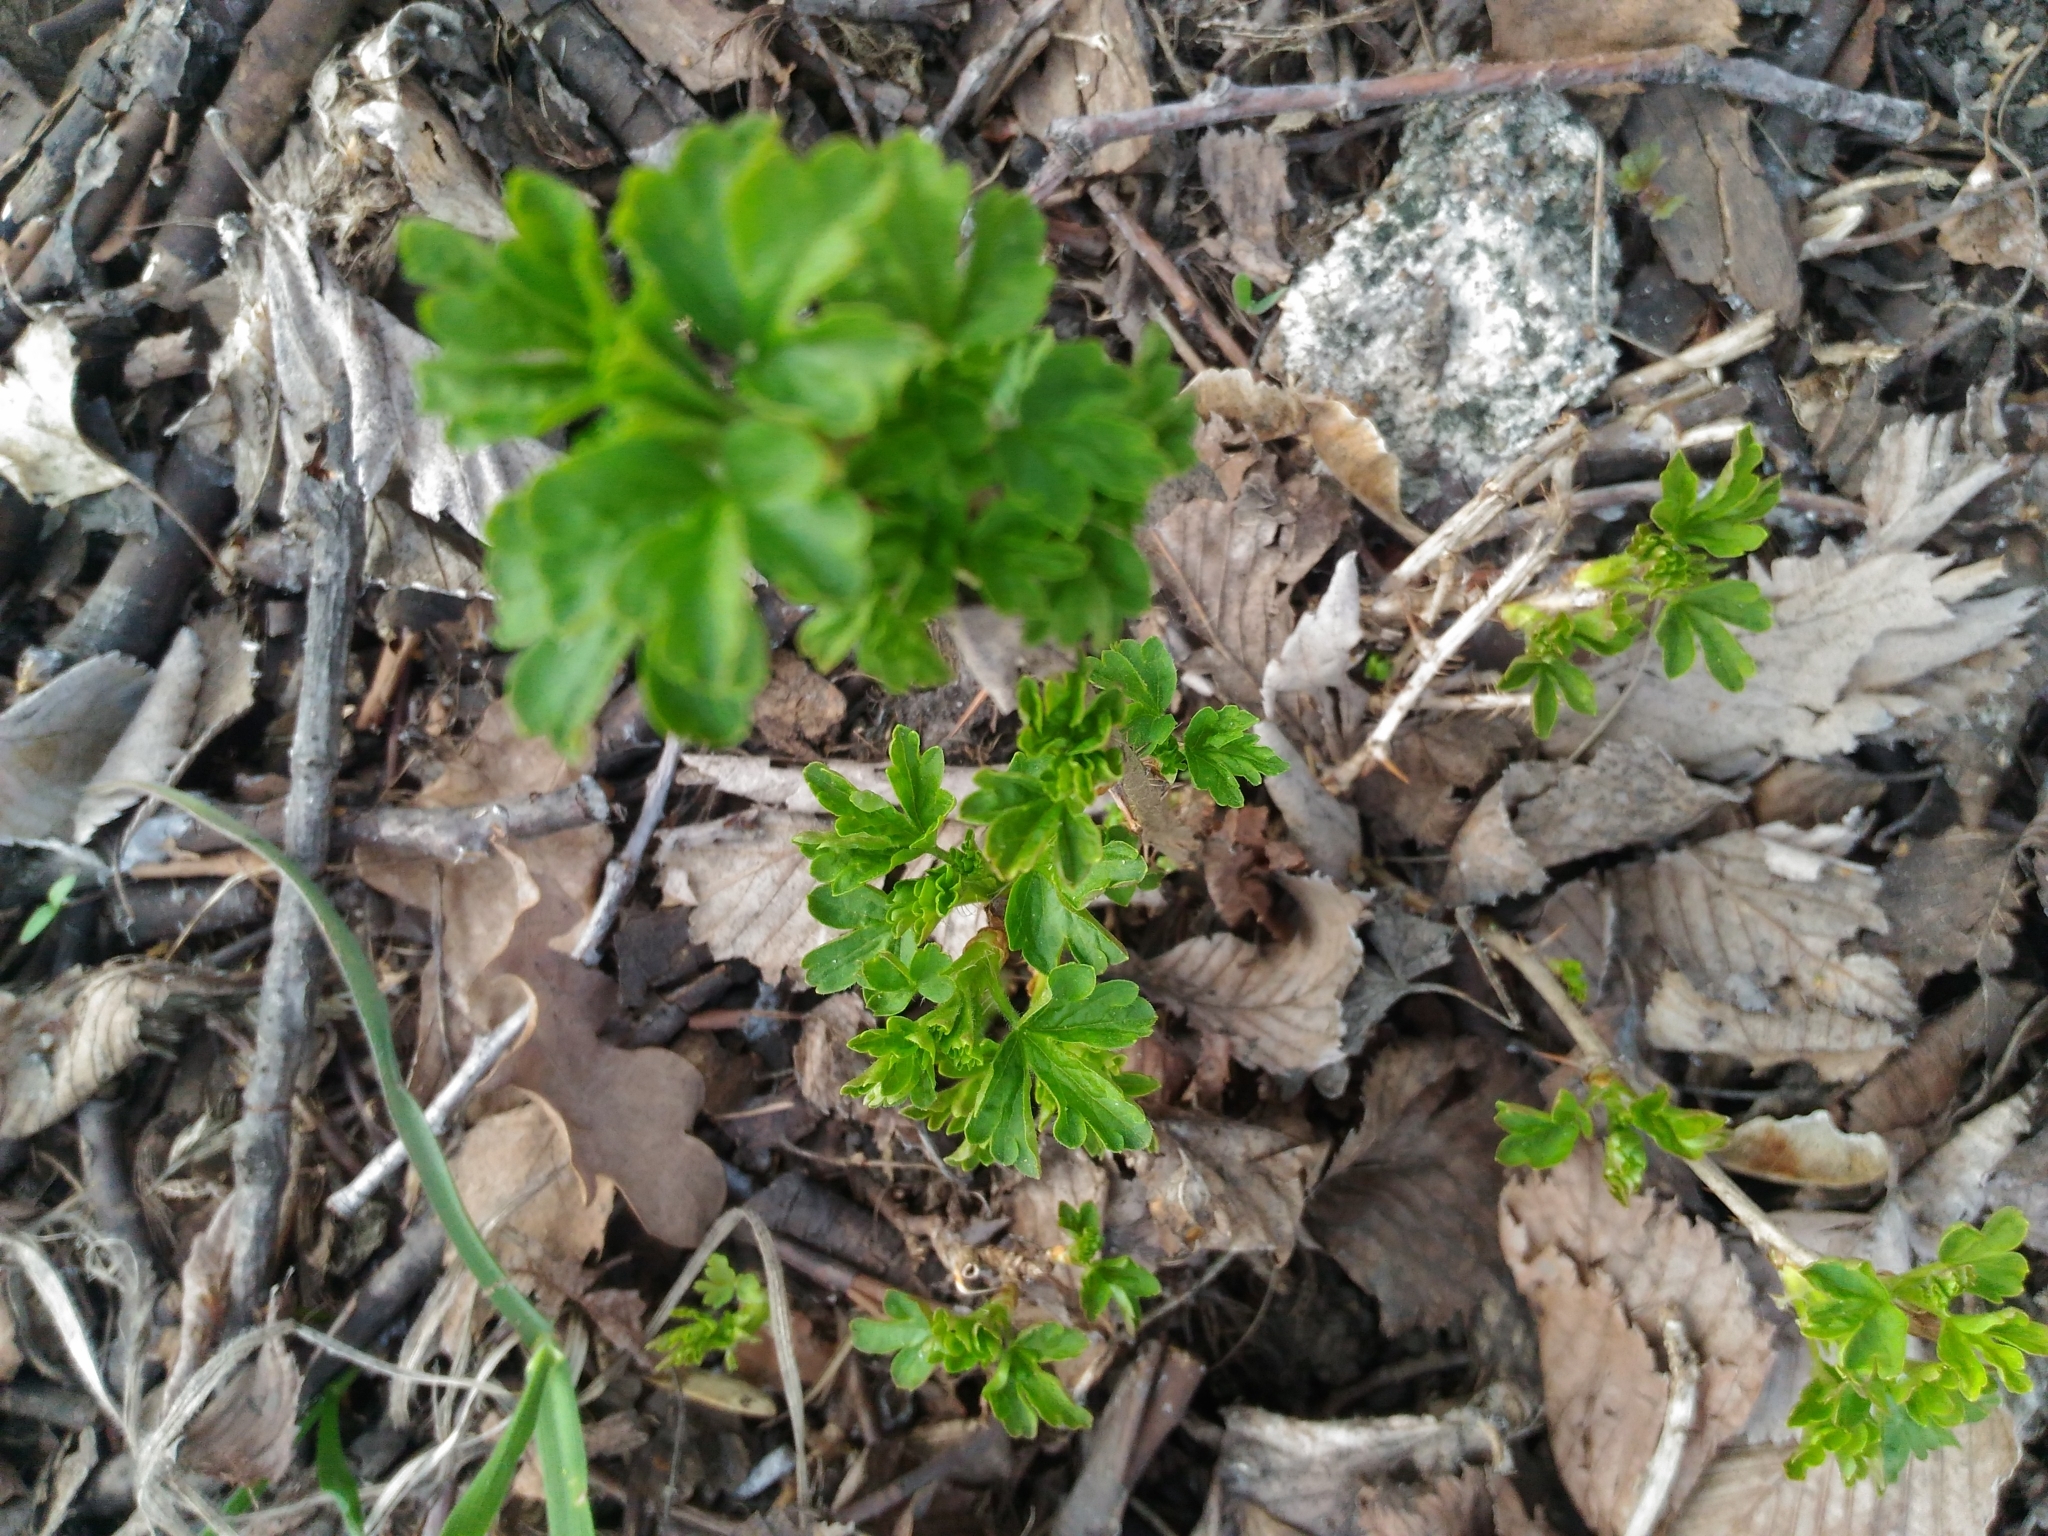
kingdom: Plantae
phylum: Tracheophyta
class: Magnoliopsida
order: Saxifragales
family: Grossulariaceae
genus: Ribes
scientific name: Ribes uva-crispa
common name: Gooseberry
